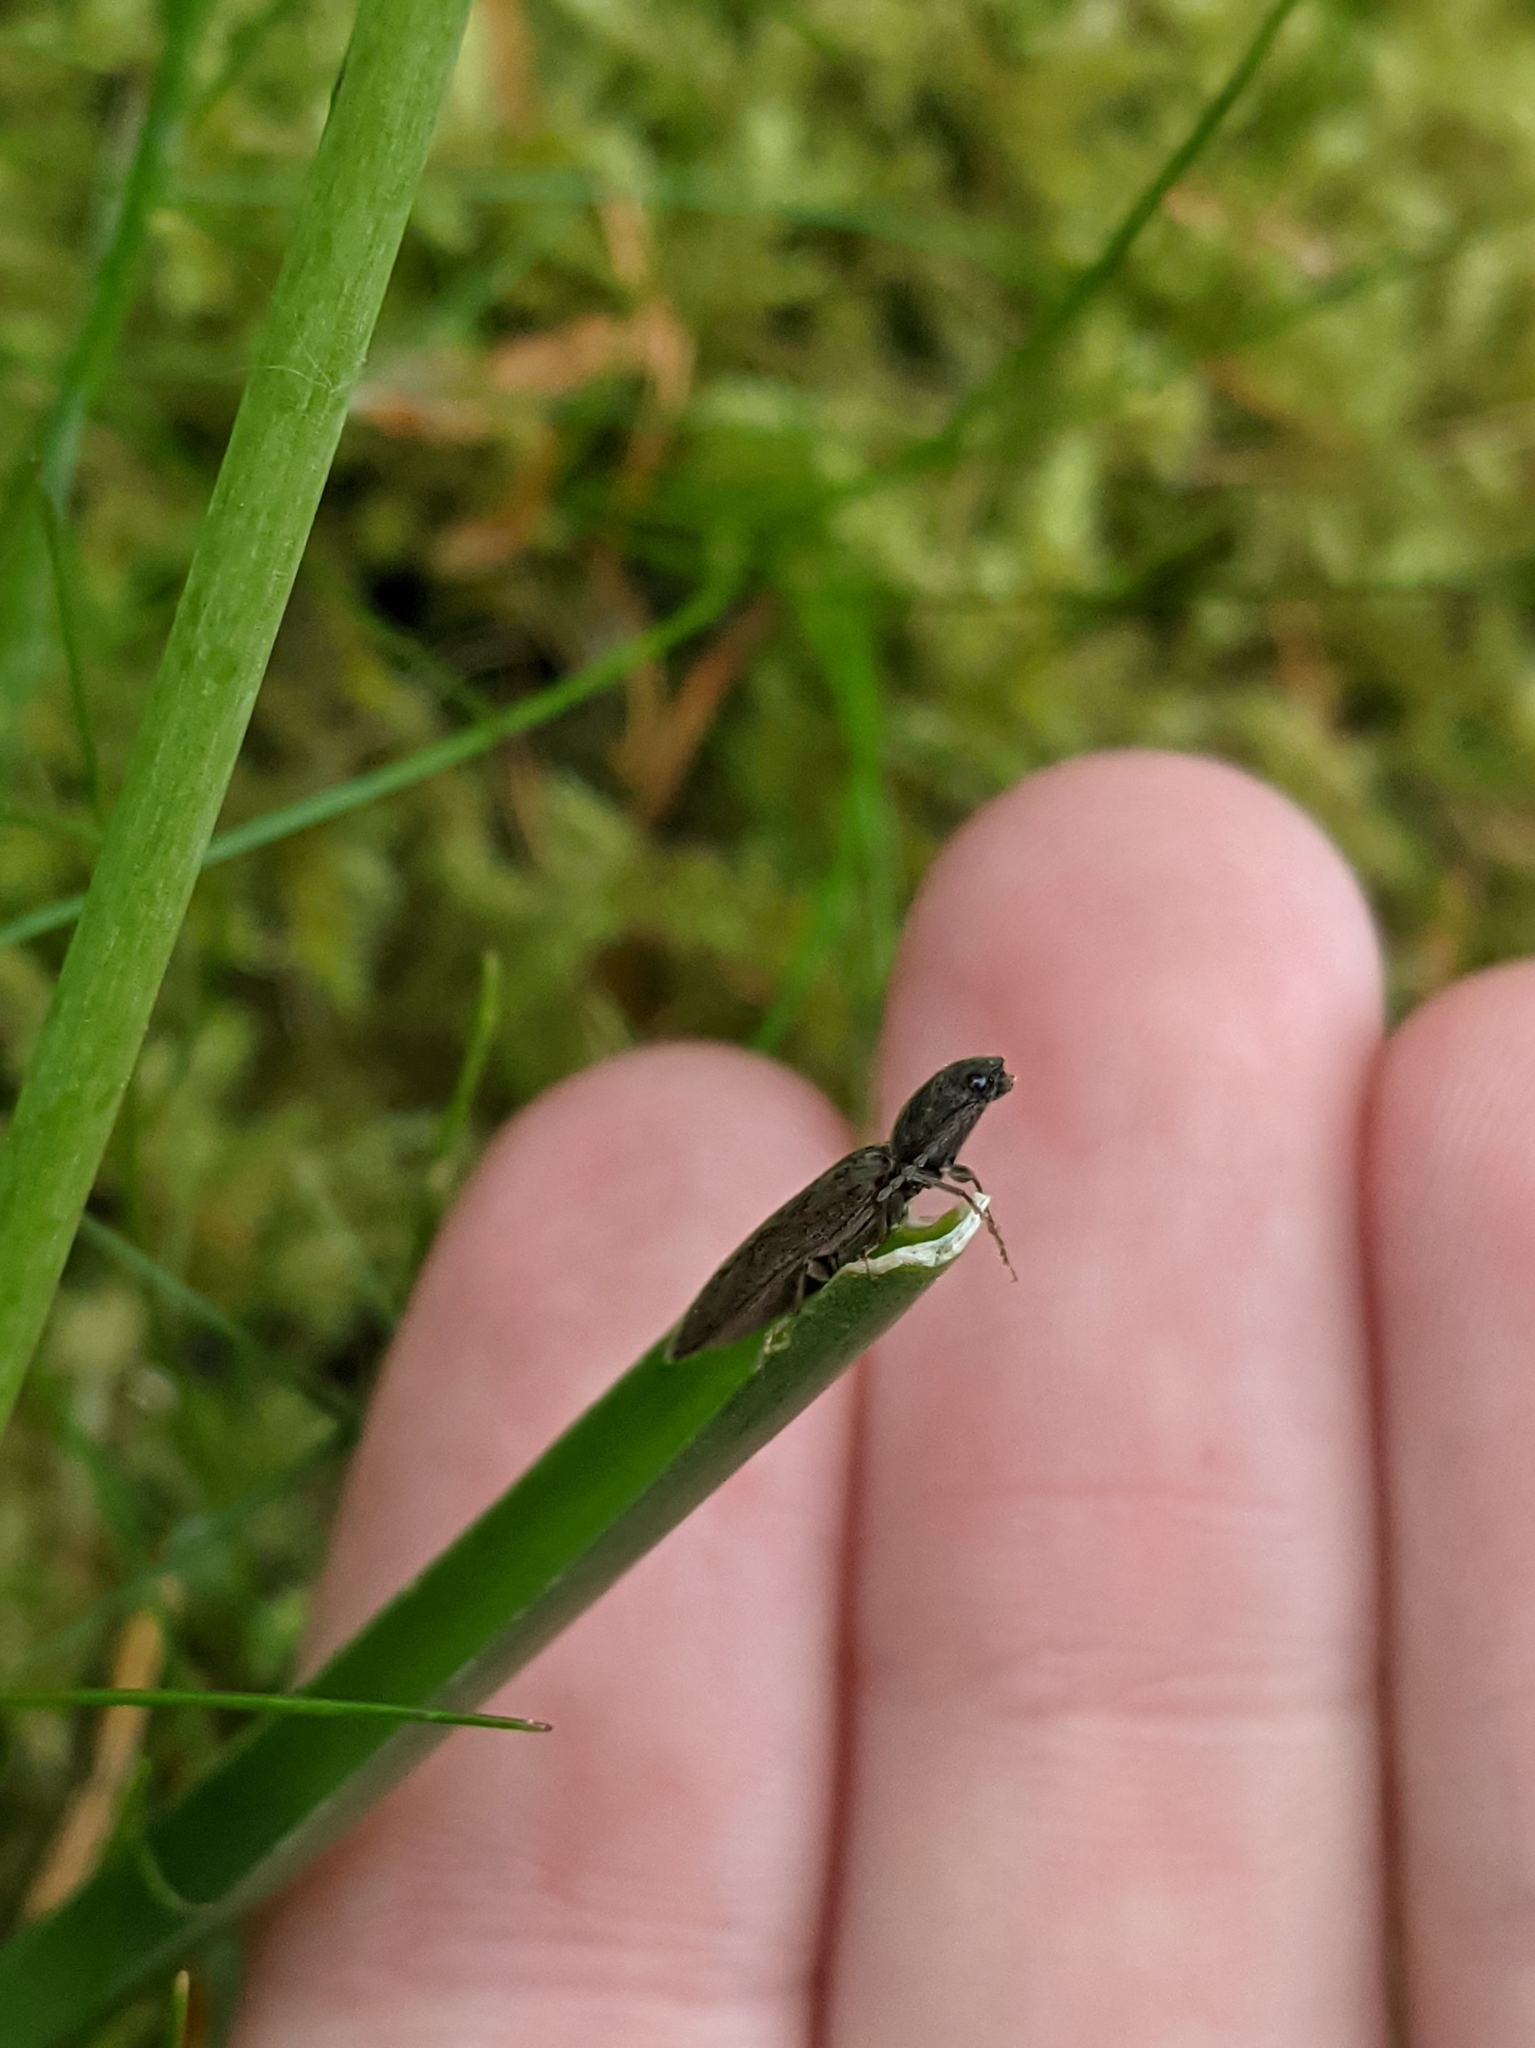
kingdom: Animalia
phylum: Arthropoda
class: Insecta
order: Coleoptera
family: Elateridae
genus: Athous
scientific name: Athous haemorrhoidalis
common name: Red-brown click beetle
